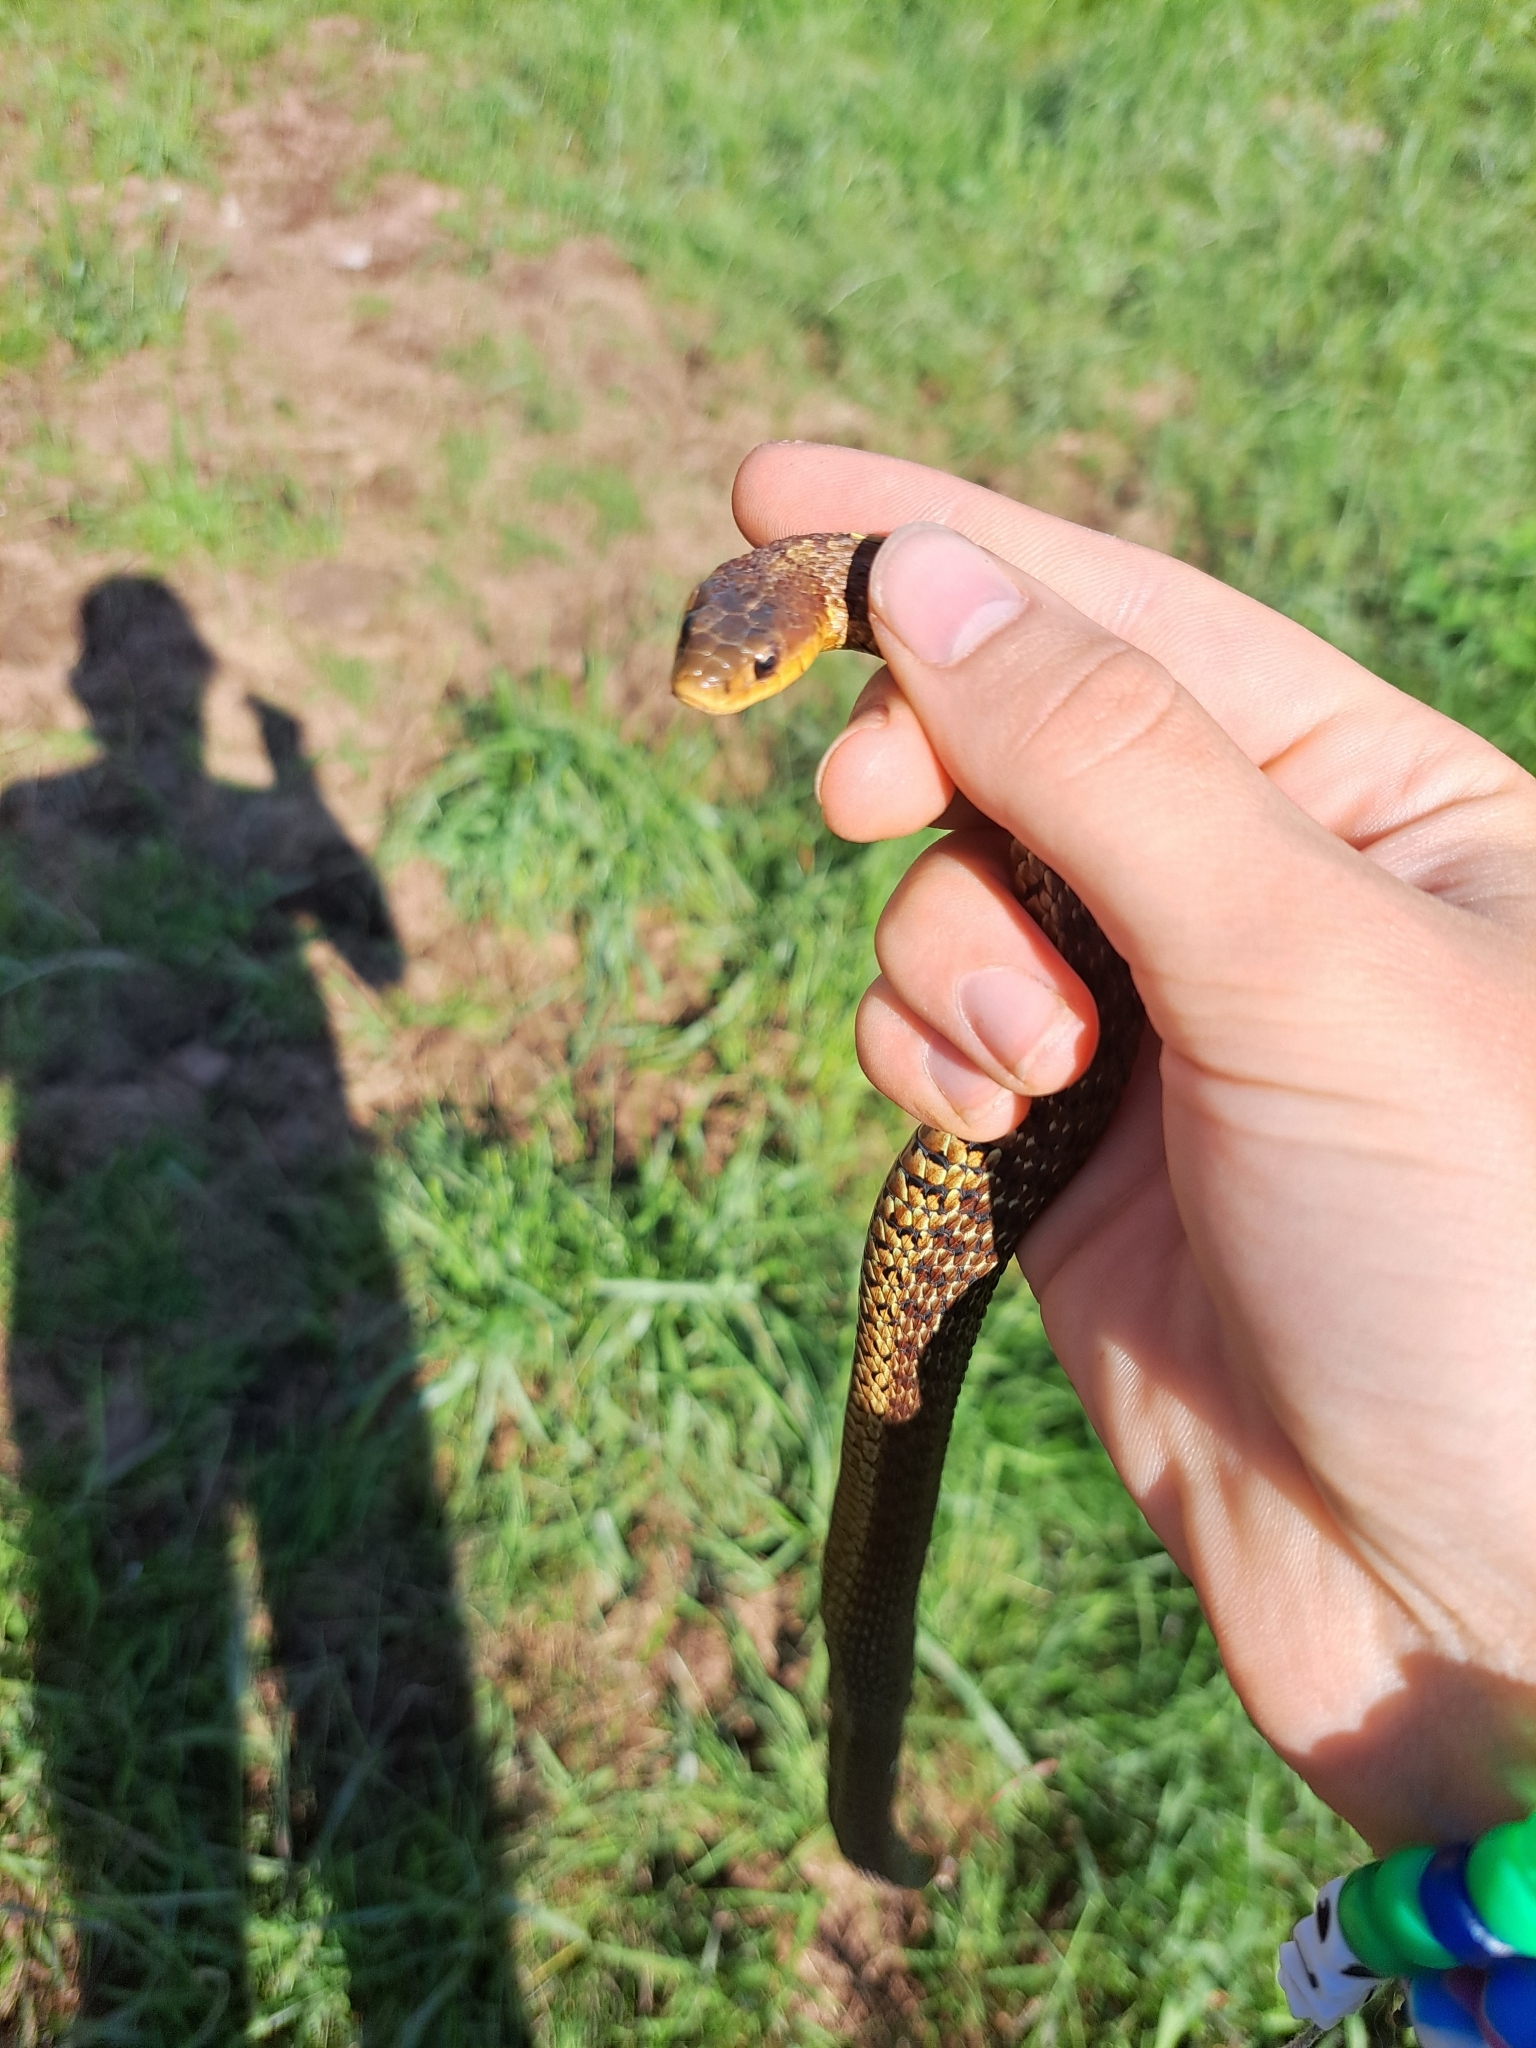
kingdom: Animalia
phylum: Chordata
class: Squamata
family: Colubridae
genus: Thamnophis
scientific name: Thamnophis sirtalis
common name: Common garter snake
